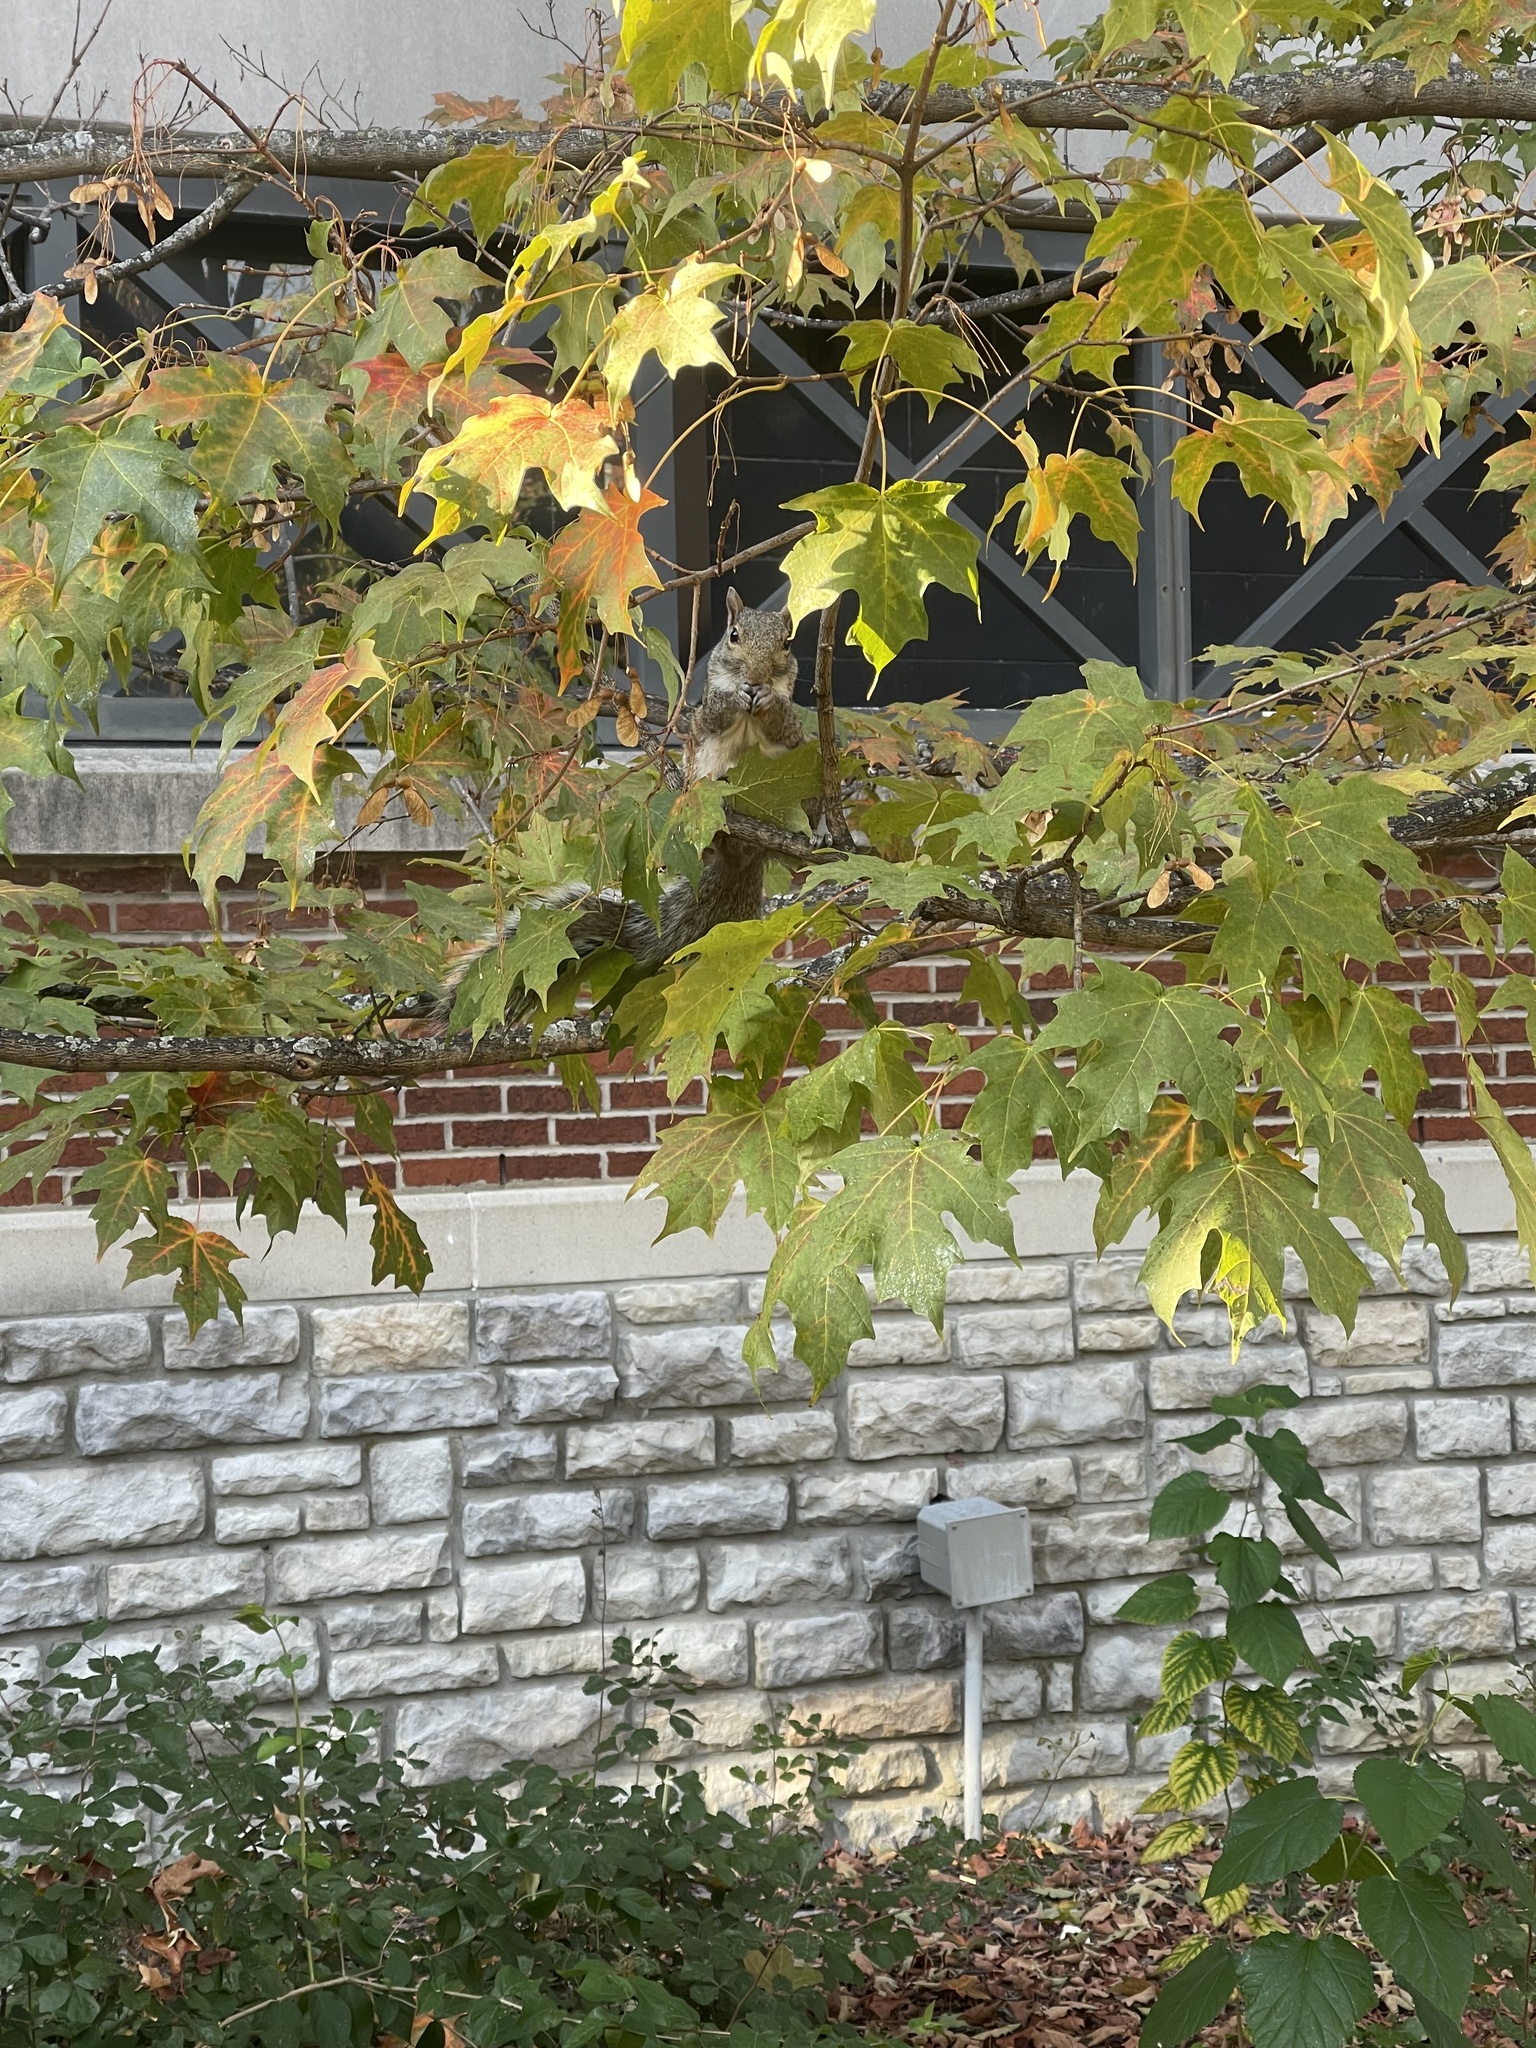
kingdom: Animalia
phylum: Chordata
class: Mammalia
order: Rodentia
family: Sciuridae
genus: Sciurus
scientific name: Sciurus carolinensis
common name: Eastern gray squirrel
